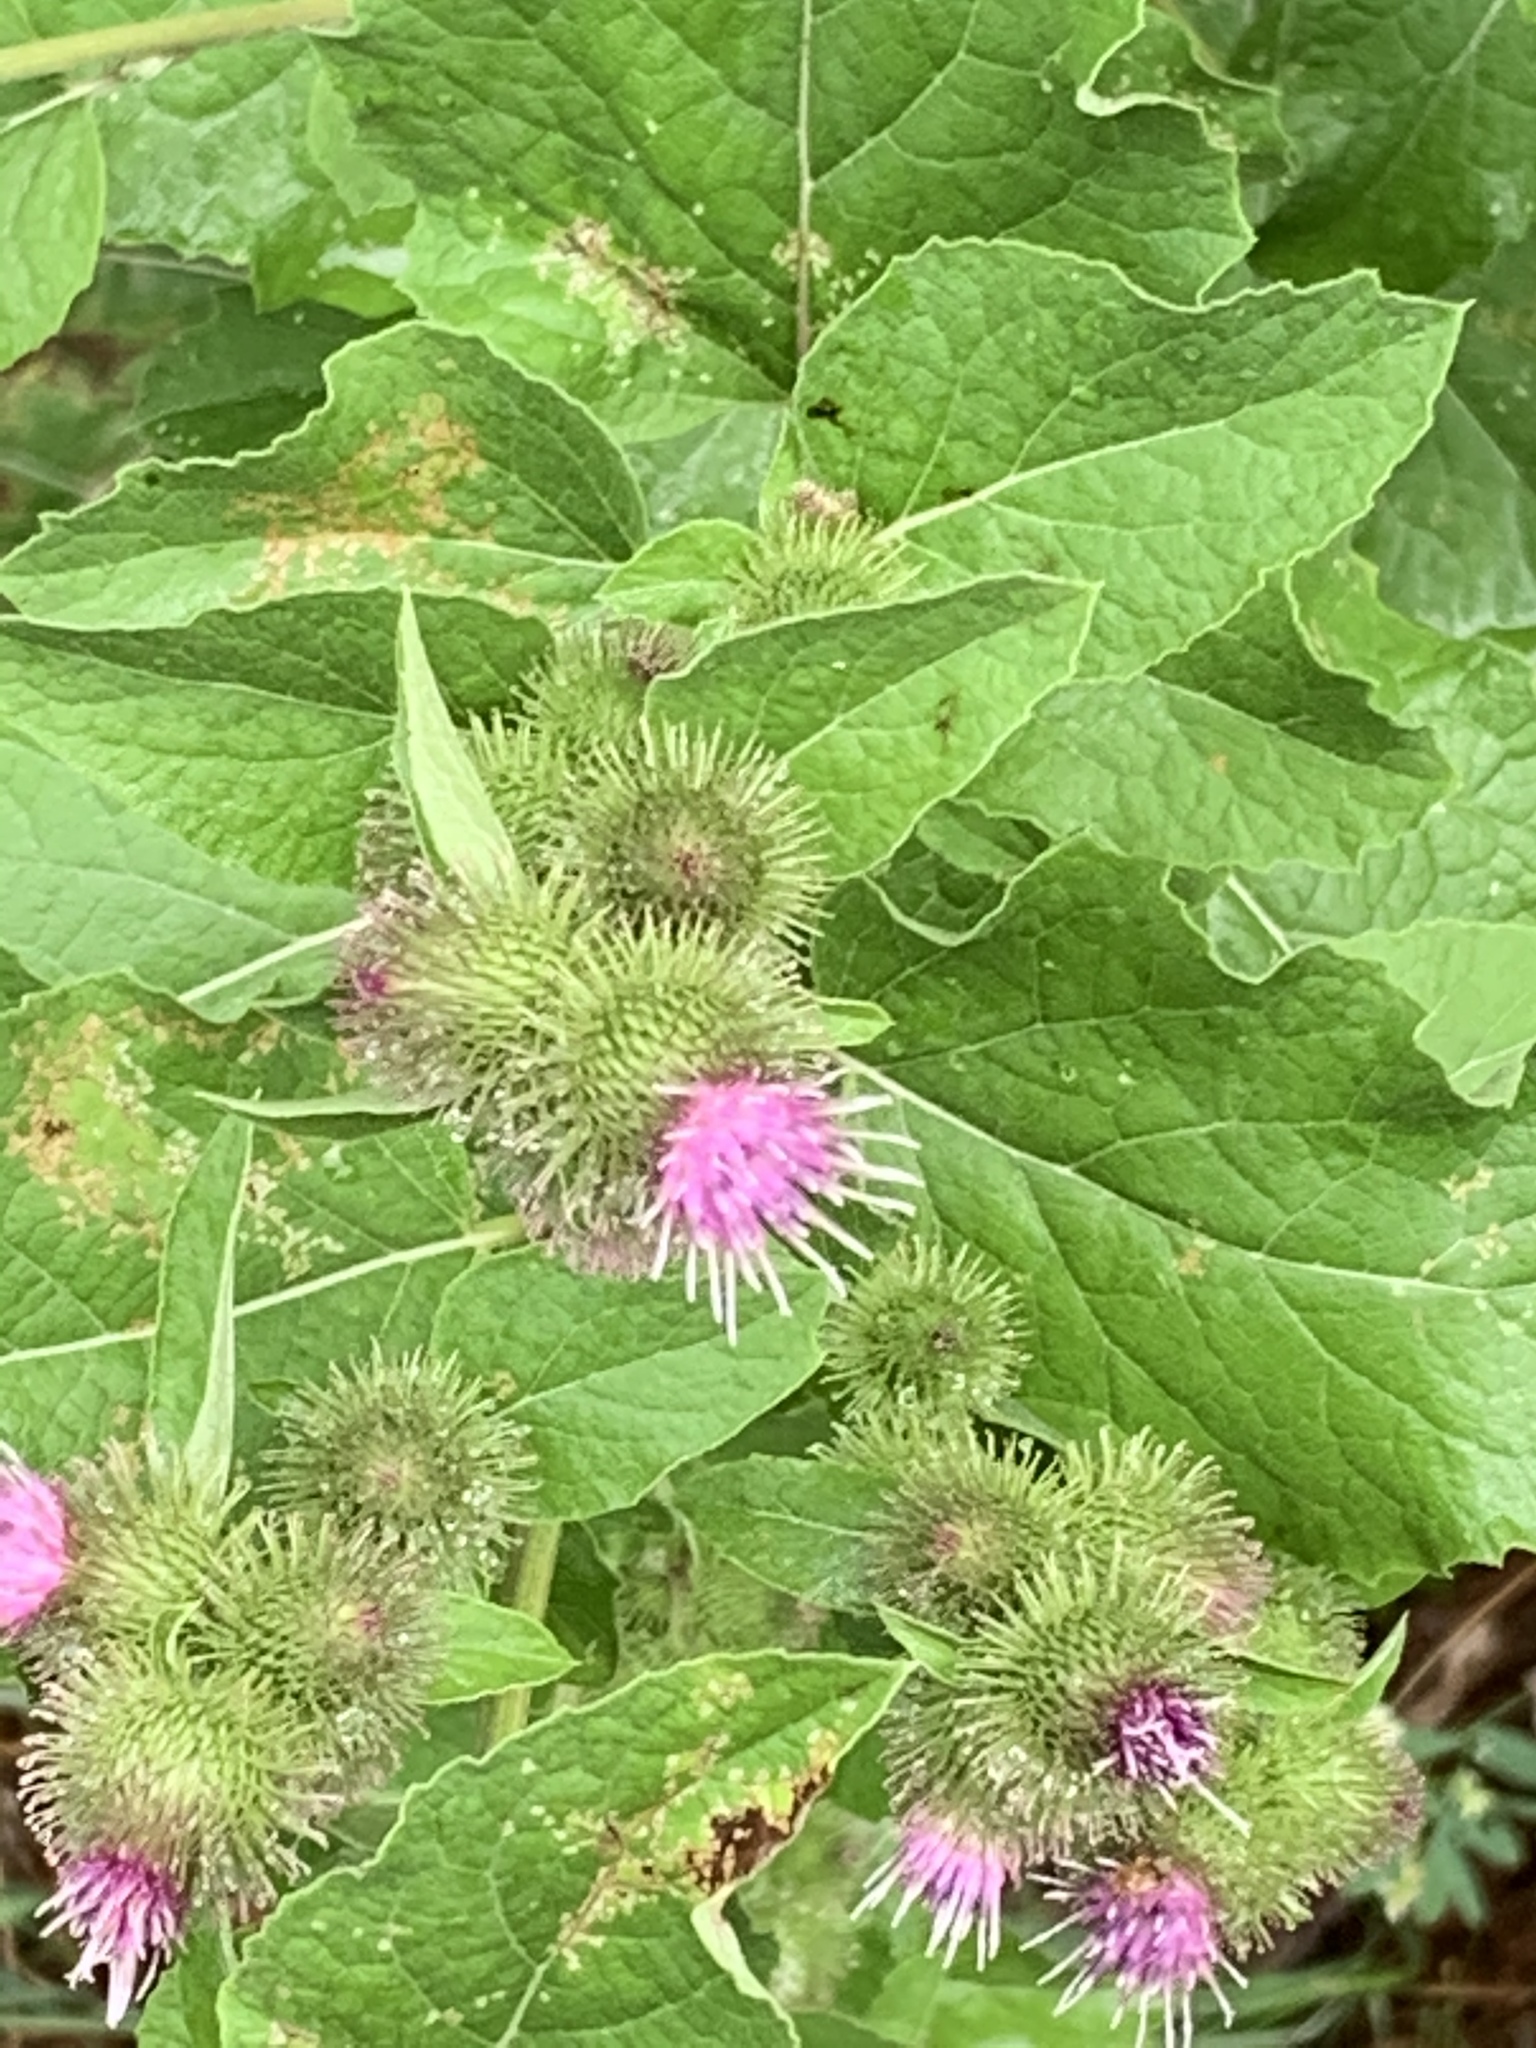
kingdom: Plantae
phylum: Tracheophyta
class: Magnoliopsida
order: Asterales
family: Asteraceae
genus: Arctium
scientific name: Arctium minus
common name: Lesser burdock
